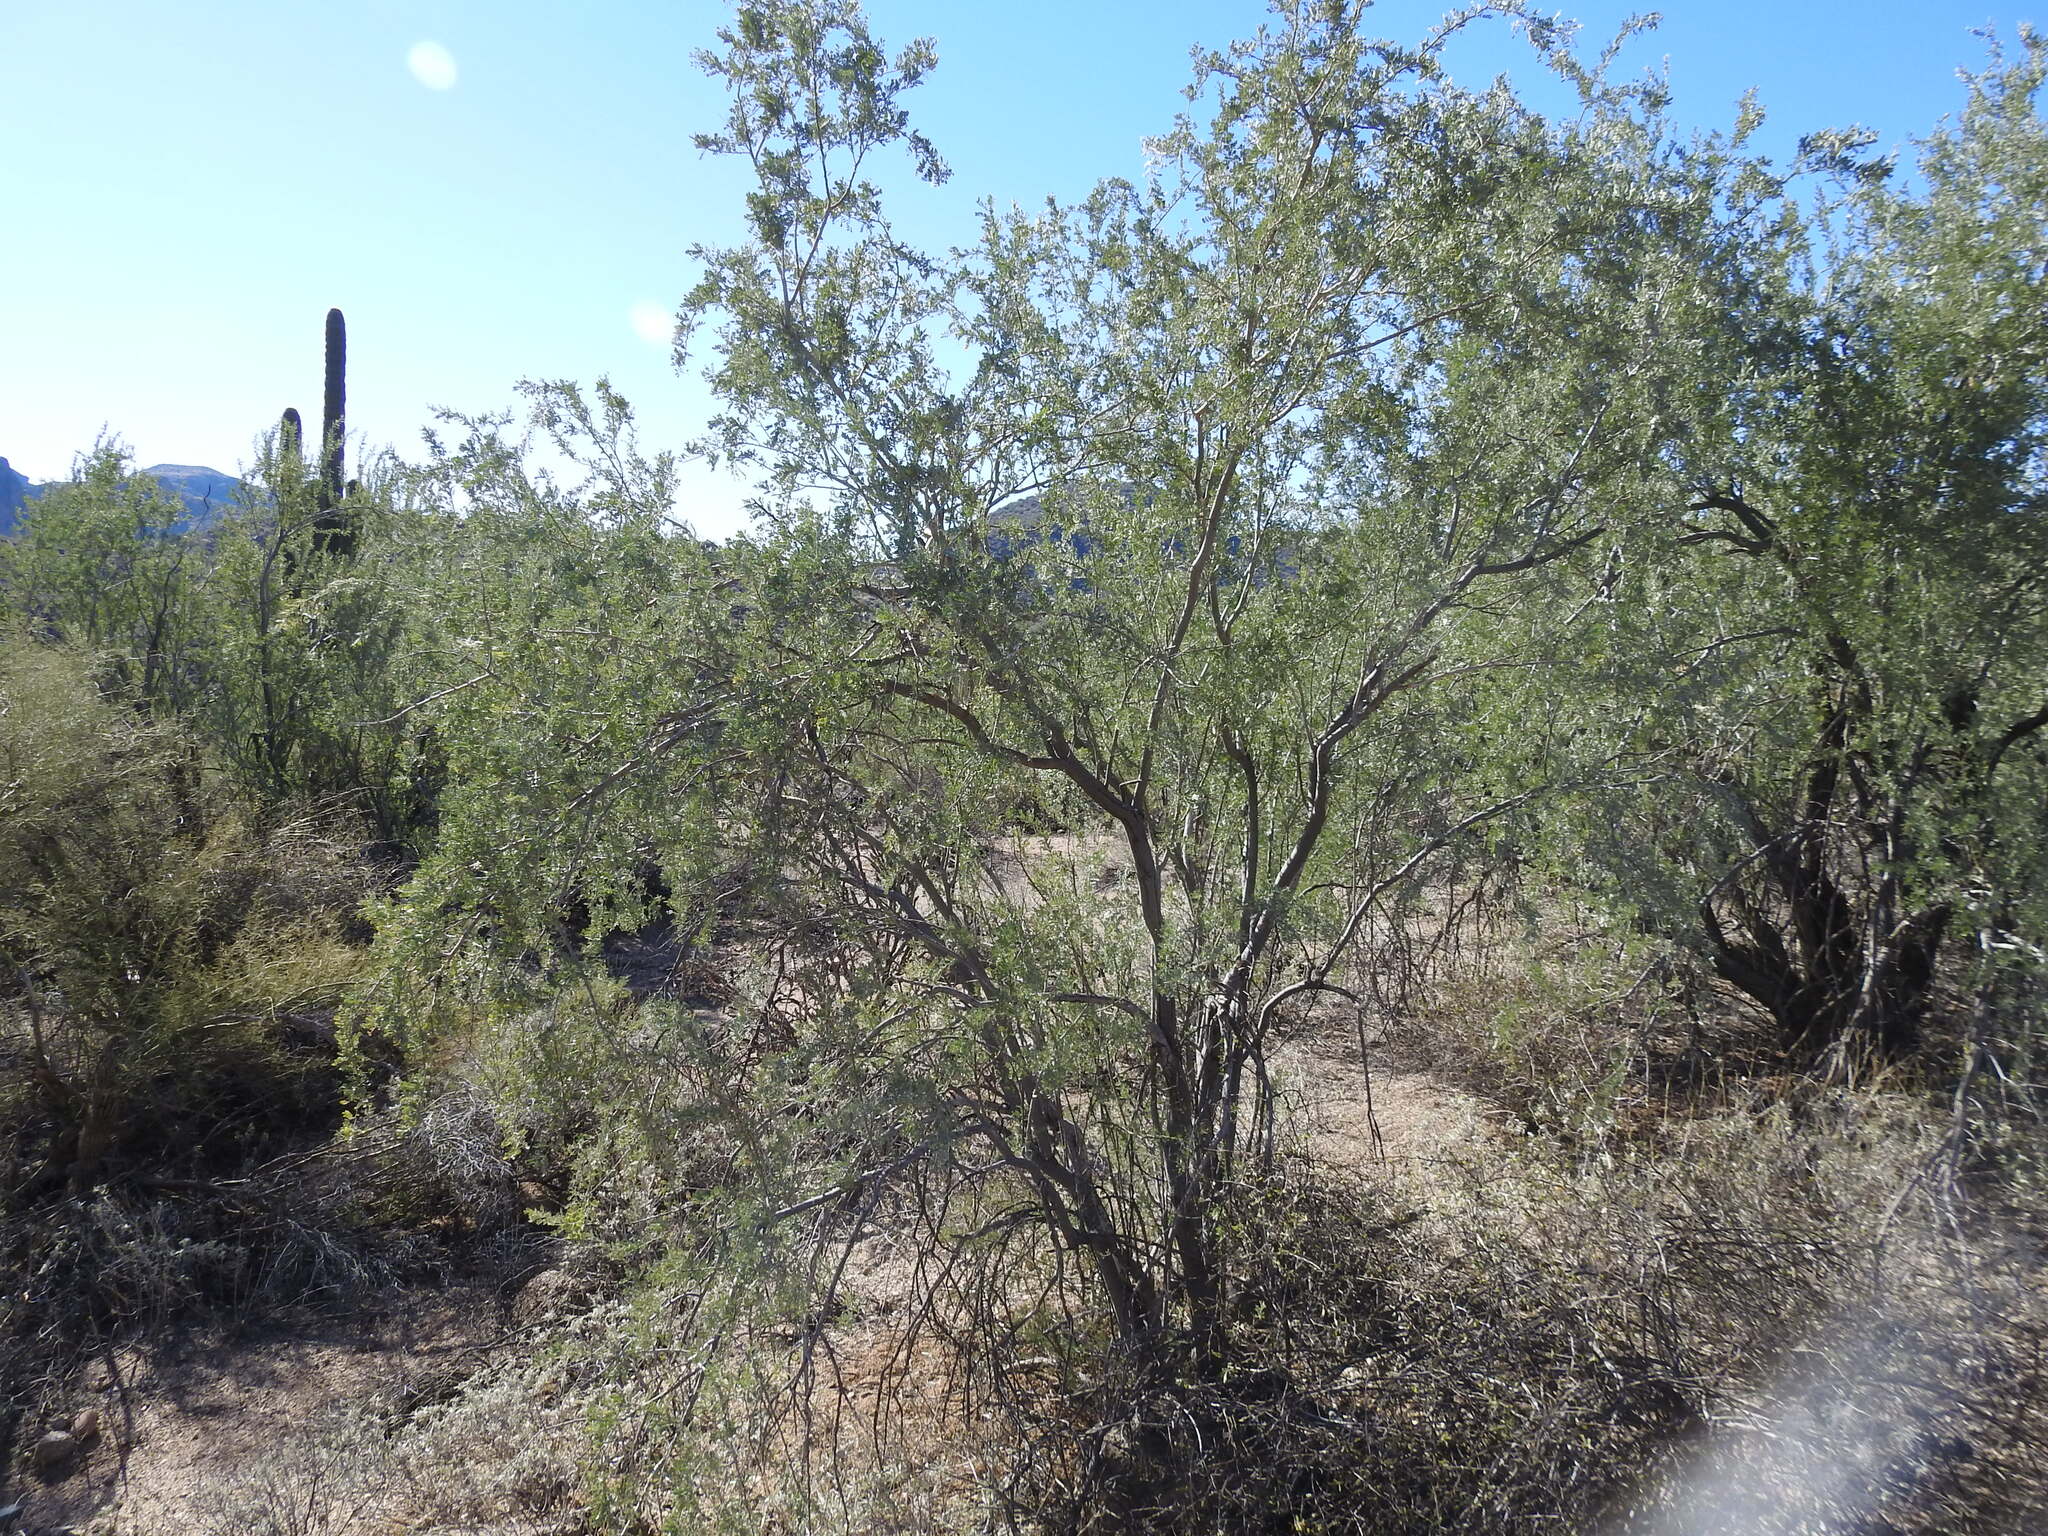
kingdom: Plantae
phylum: Tracheophyta
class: Magnoliopsida
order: Fabales
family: Fabaceae
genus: Olneya
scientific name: Olneya tesota
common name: Desert ironwood
